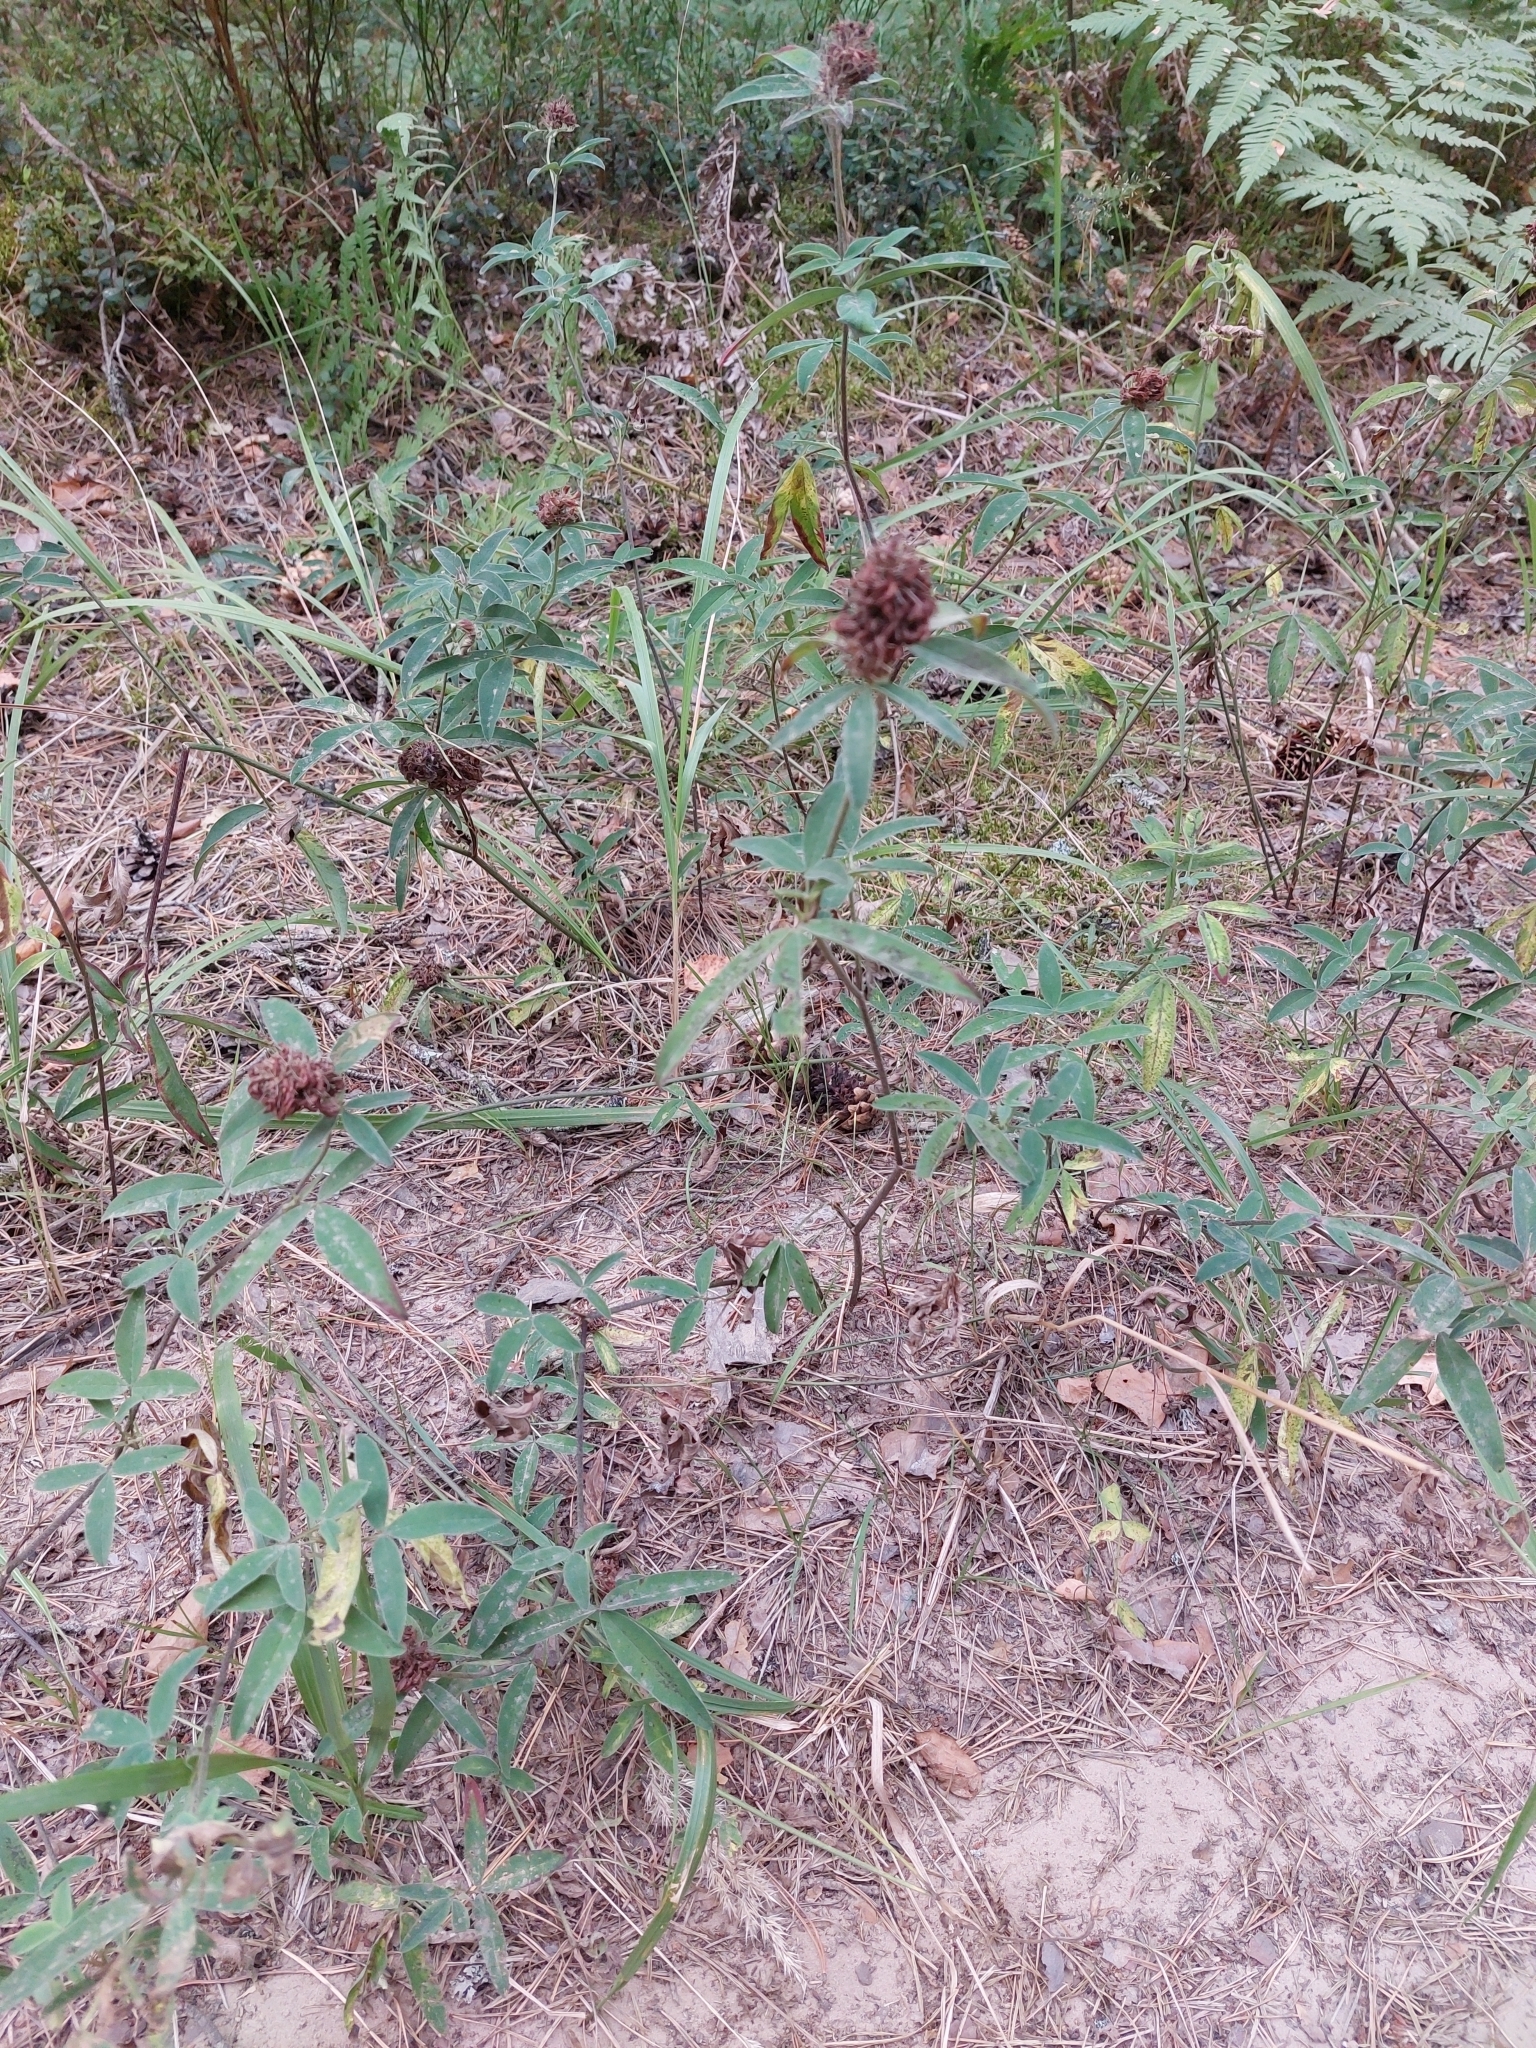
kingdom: Plantae
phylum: Tracheophyta
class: Magnoliopsida
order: Fabales
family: Fabaceae
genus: Trifolium
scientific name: Trifolium medium
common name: Zigzag clover
